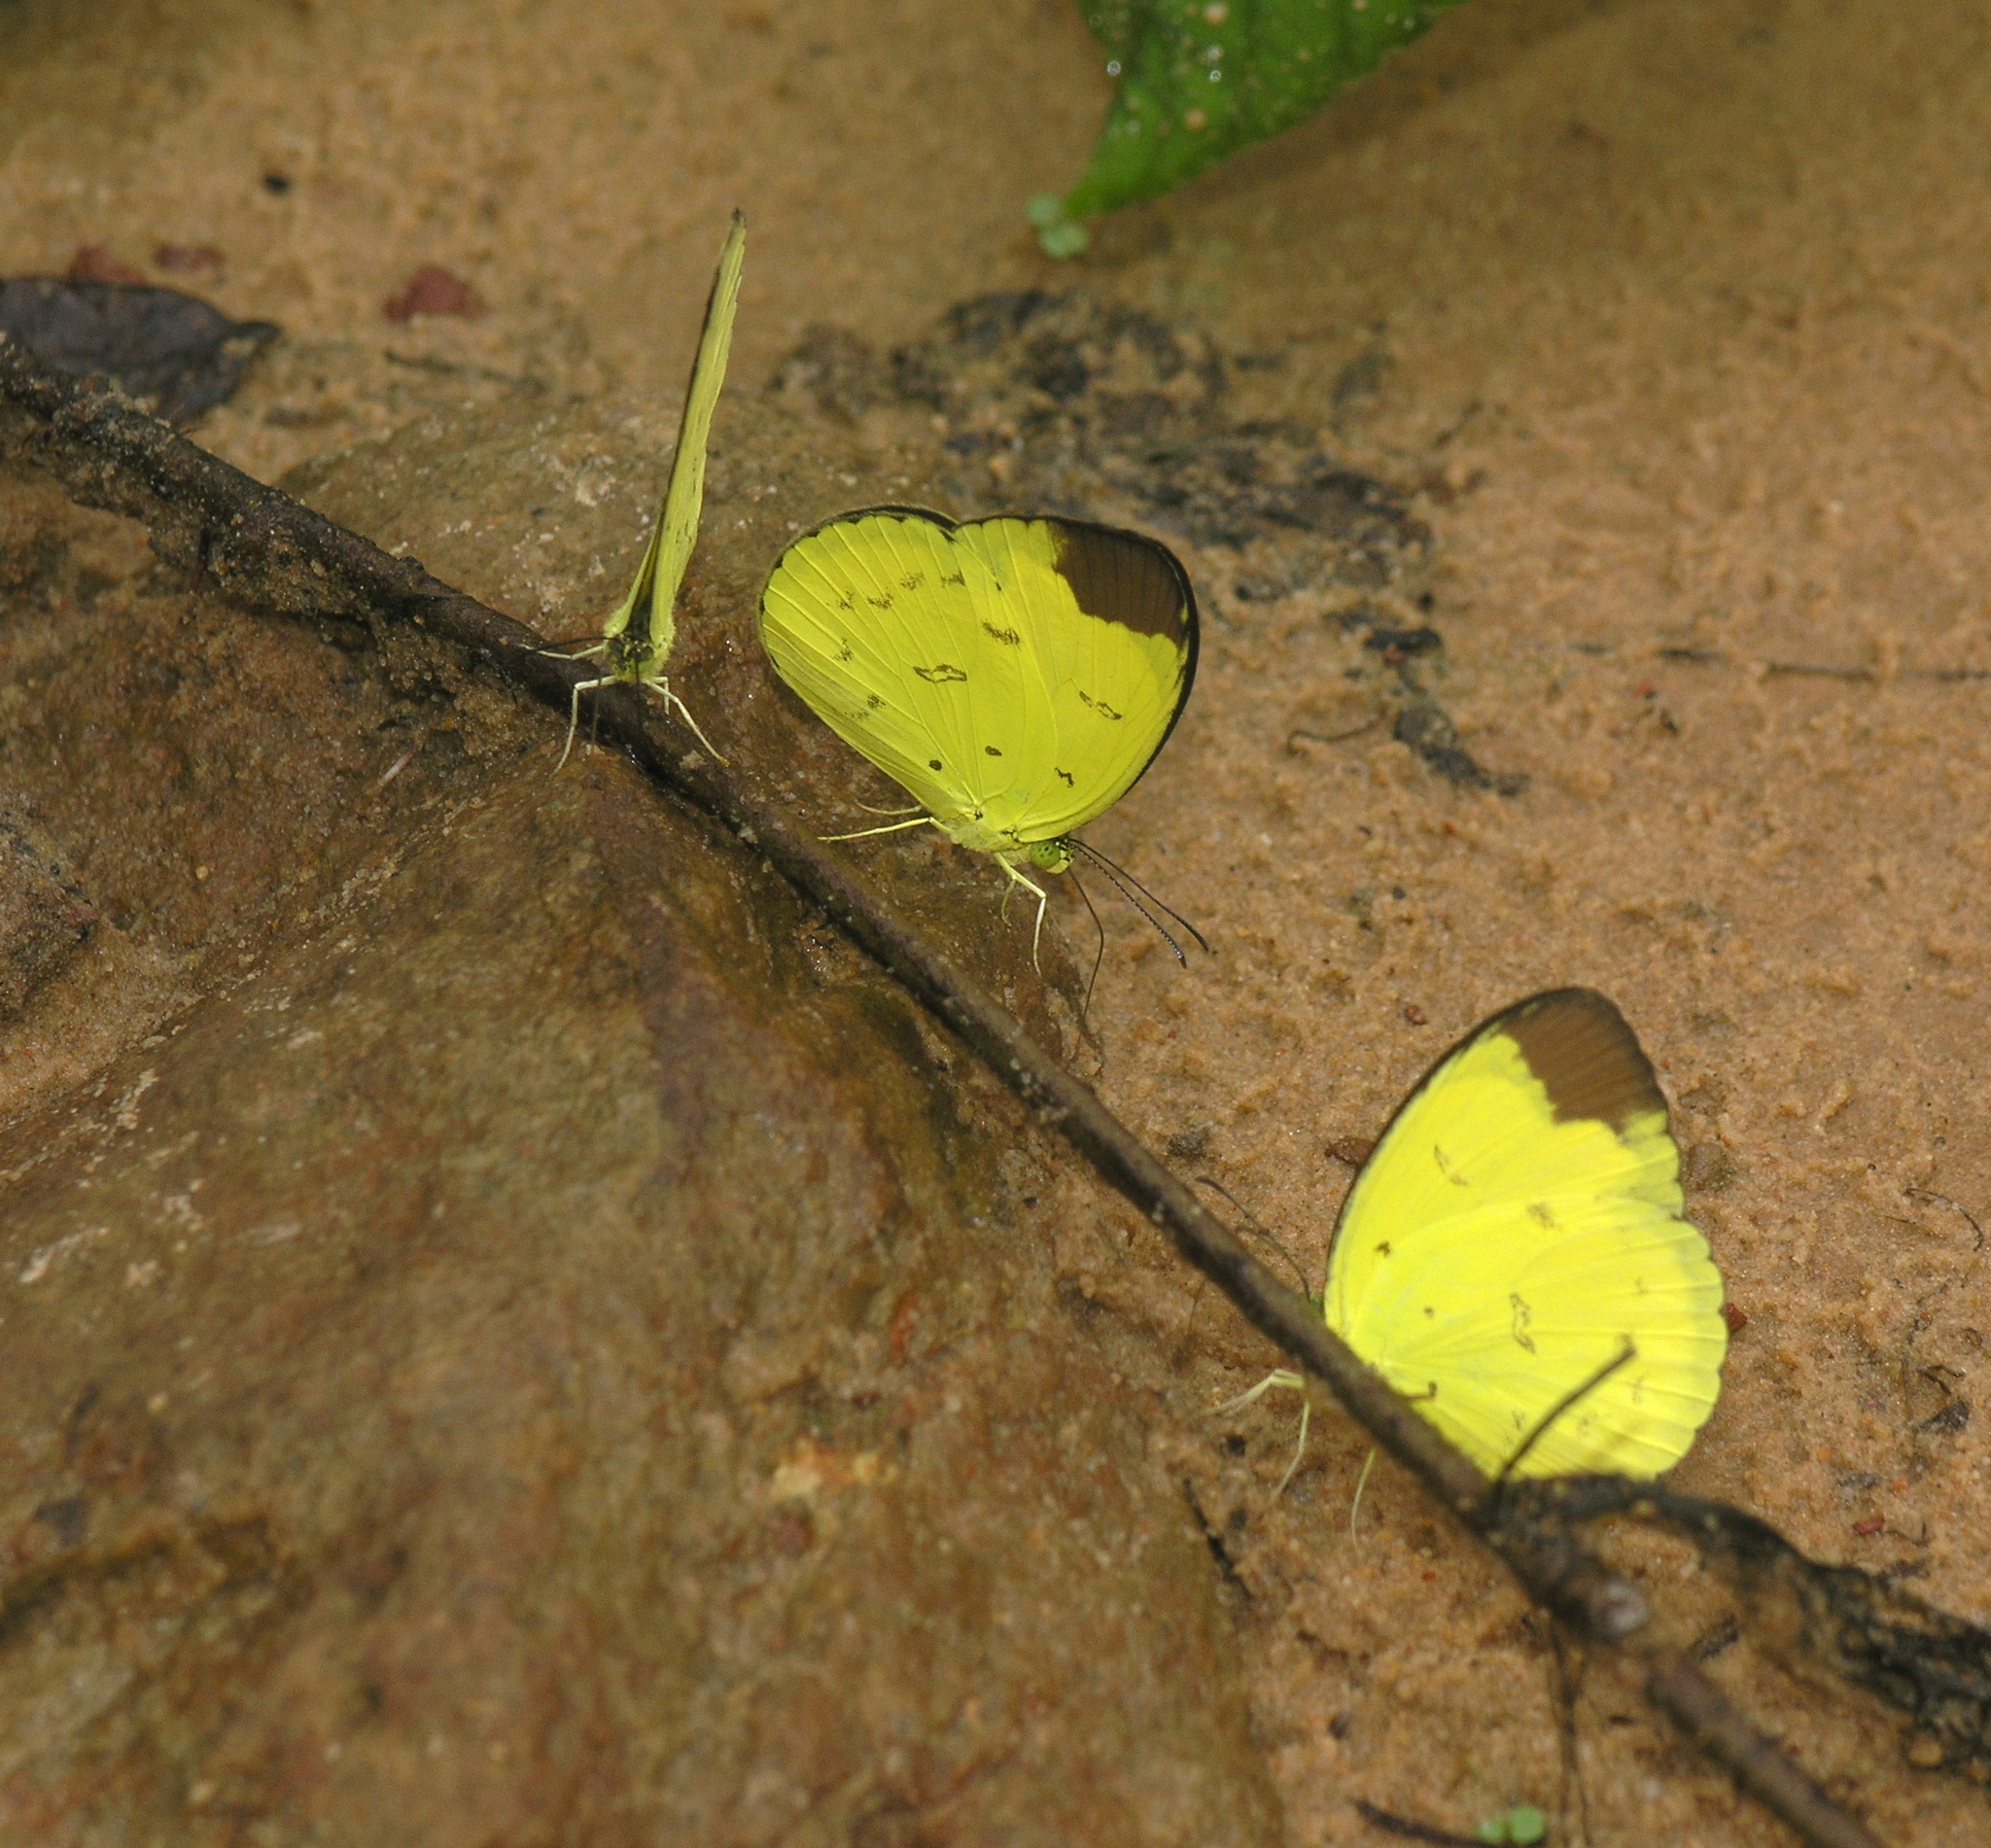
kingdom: Animalia
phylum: Arthropoda
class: Insecta
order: Lepidoptera
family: Pieridae
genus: Eurema
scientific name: Eurema sari
